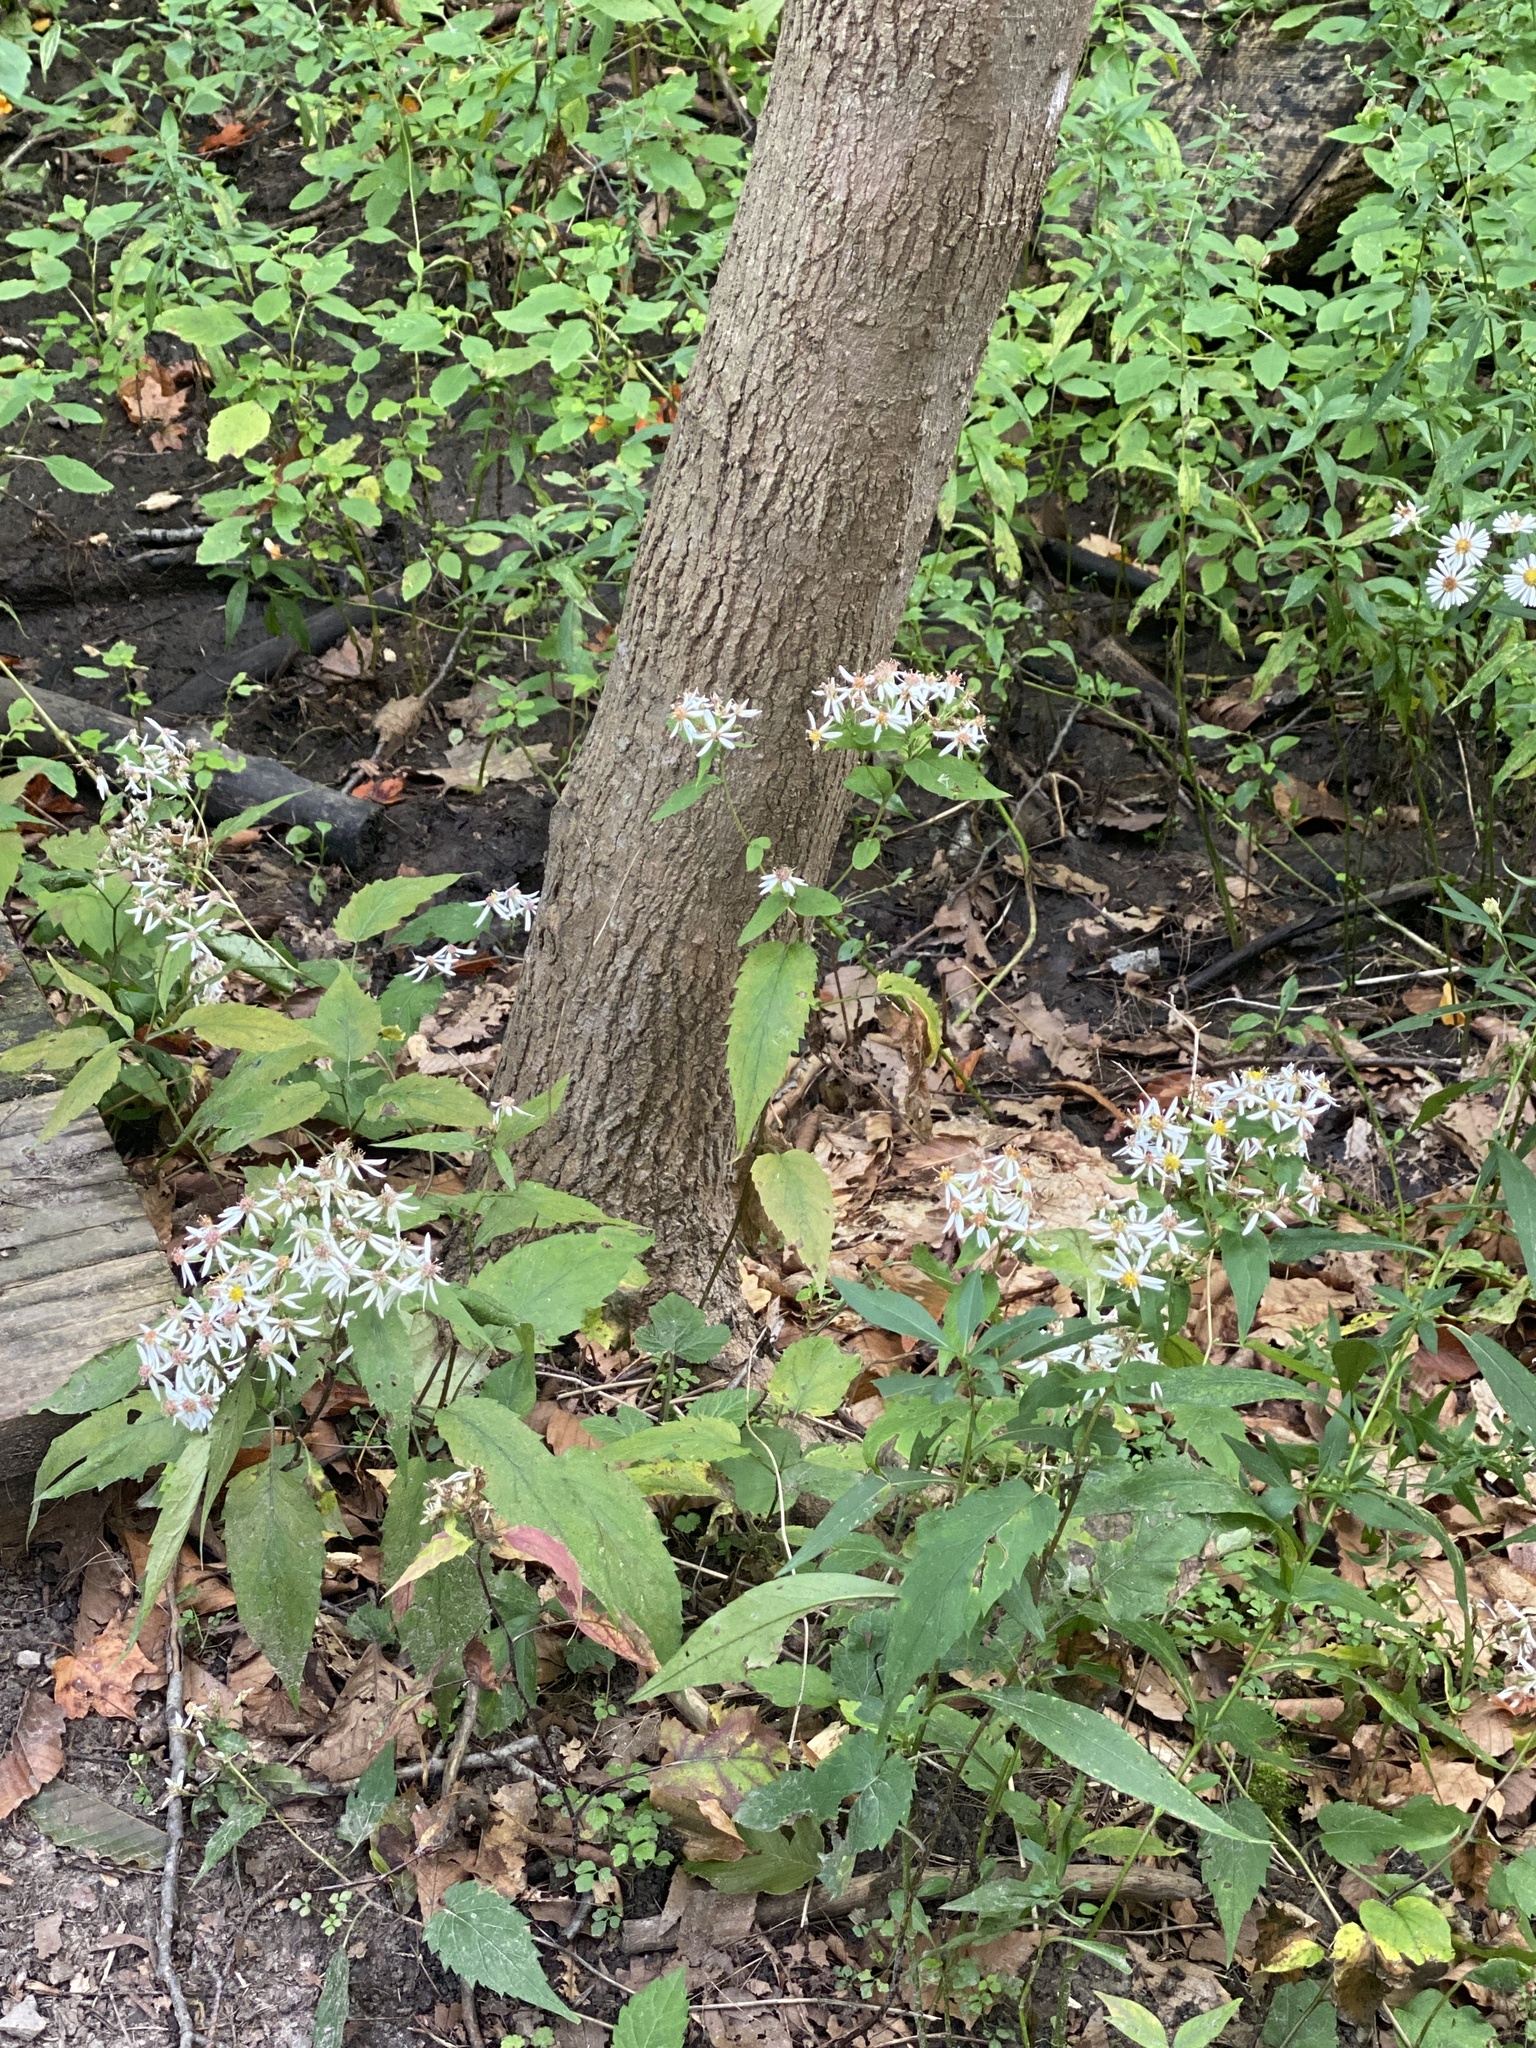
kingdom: Plantae
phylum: Tracheophyta
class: Magnoliopsida
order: Asterales
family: Asteraceae
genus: Eurybia
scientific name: Eurybia divaricata
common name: White wood aster
